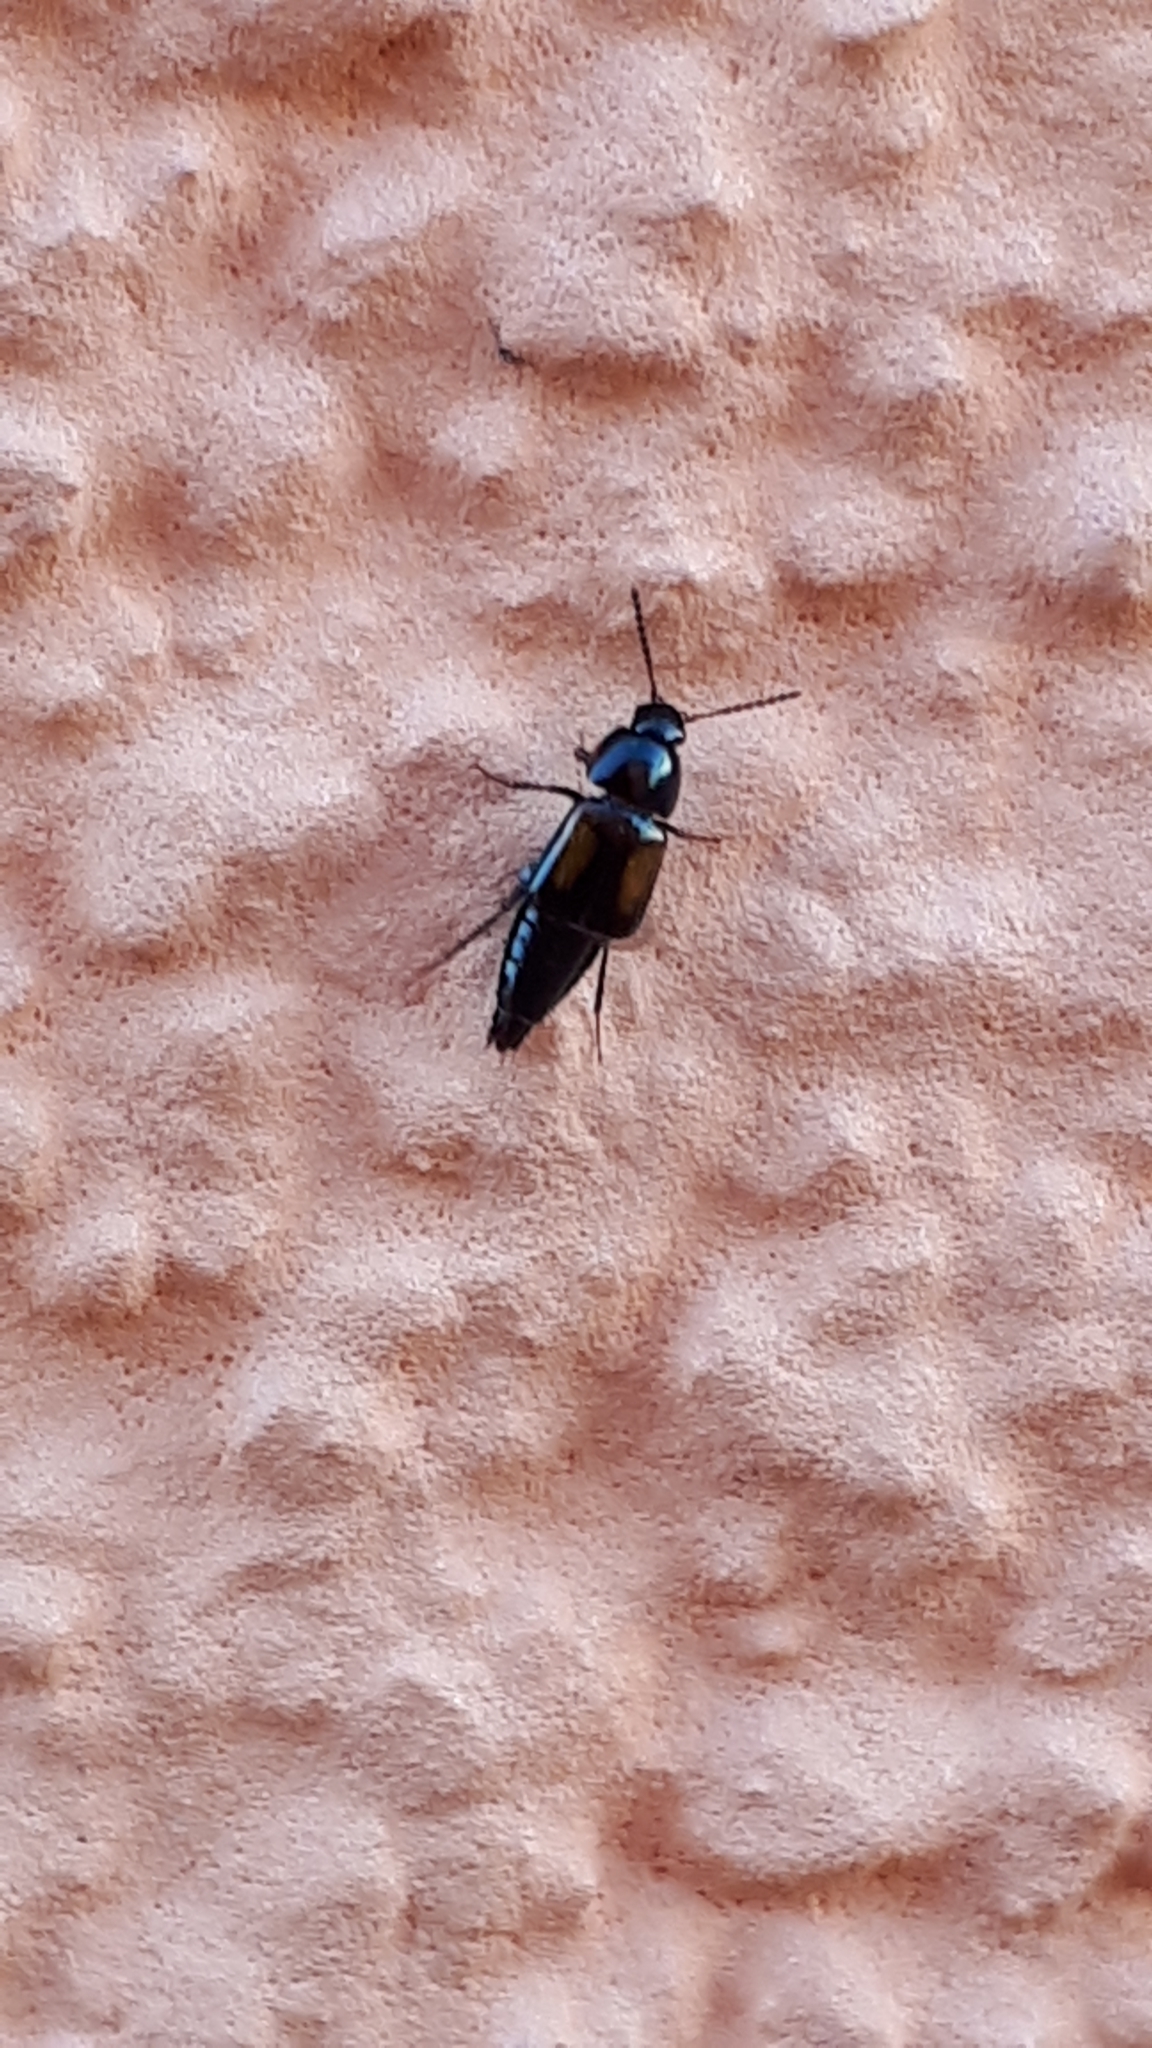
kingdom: Animalia
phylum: Arthropoda
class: Insecta
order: Coleoptera
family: Staphylinidae
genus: Tachinus
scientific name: Tachinus subterraneus
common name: Staph beetle
